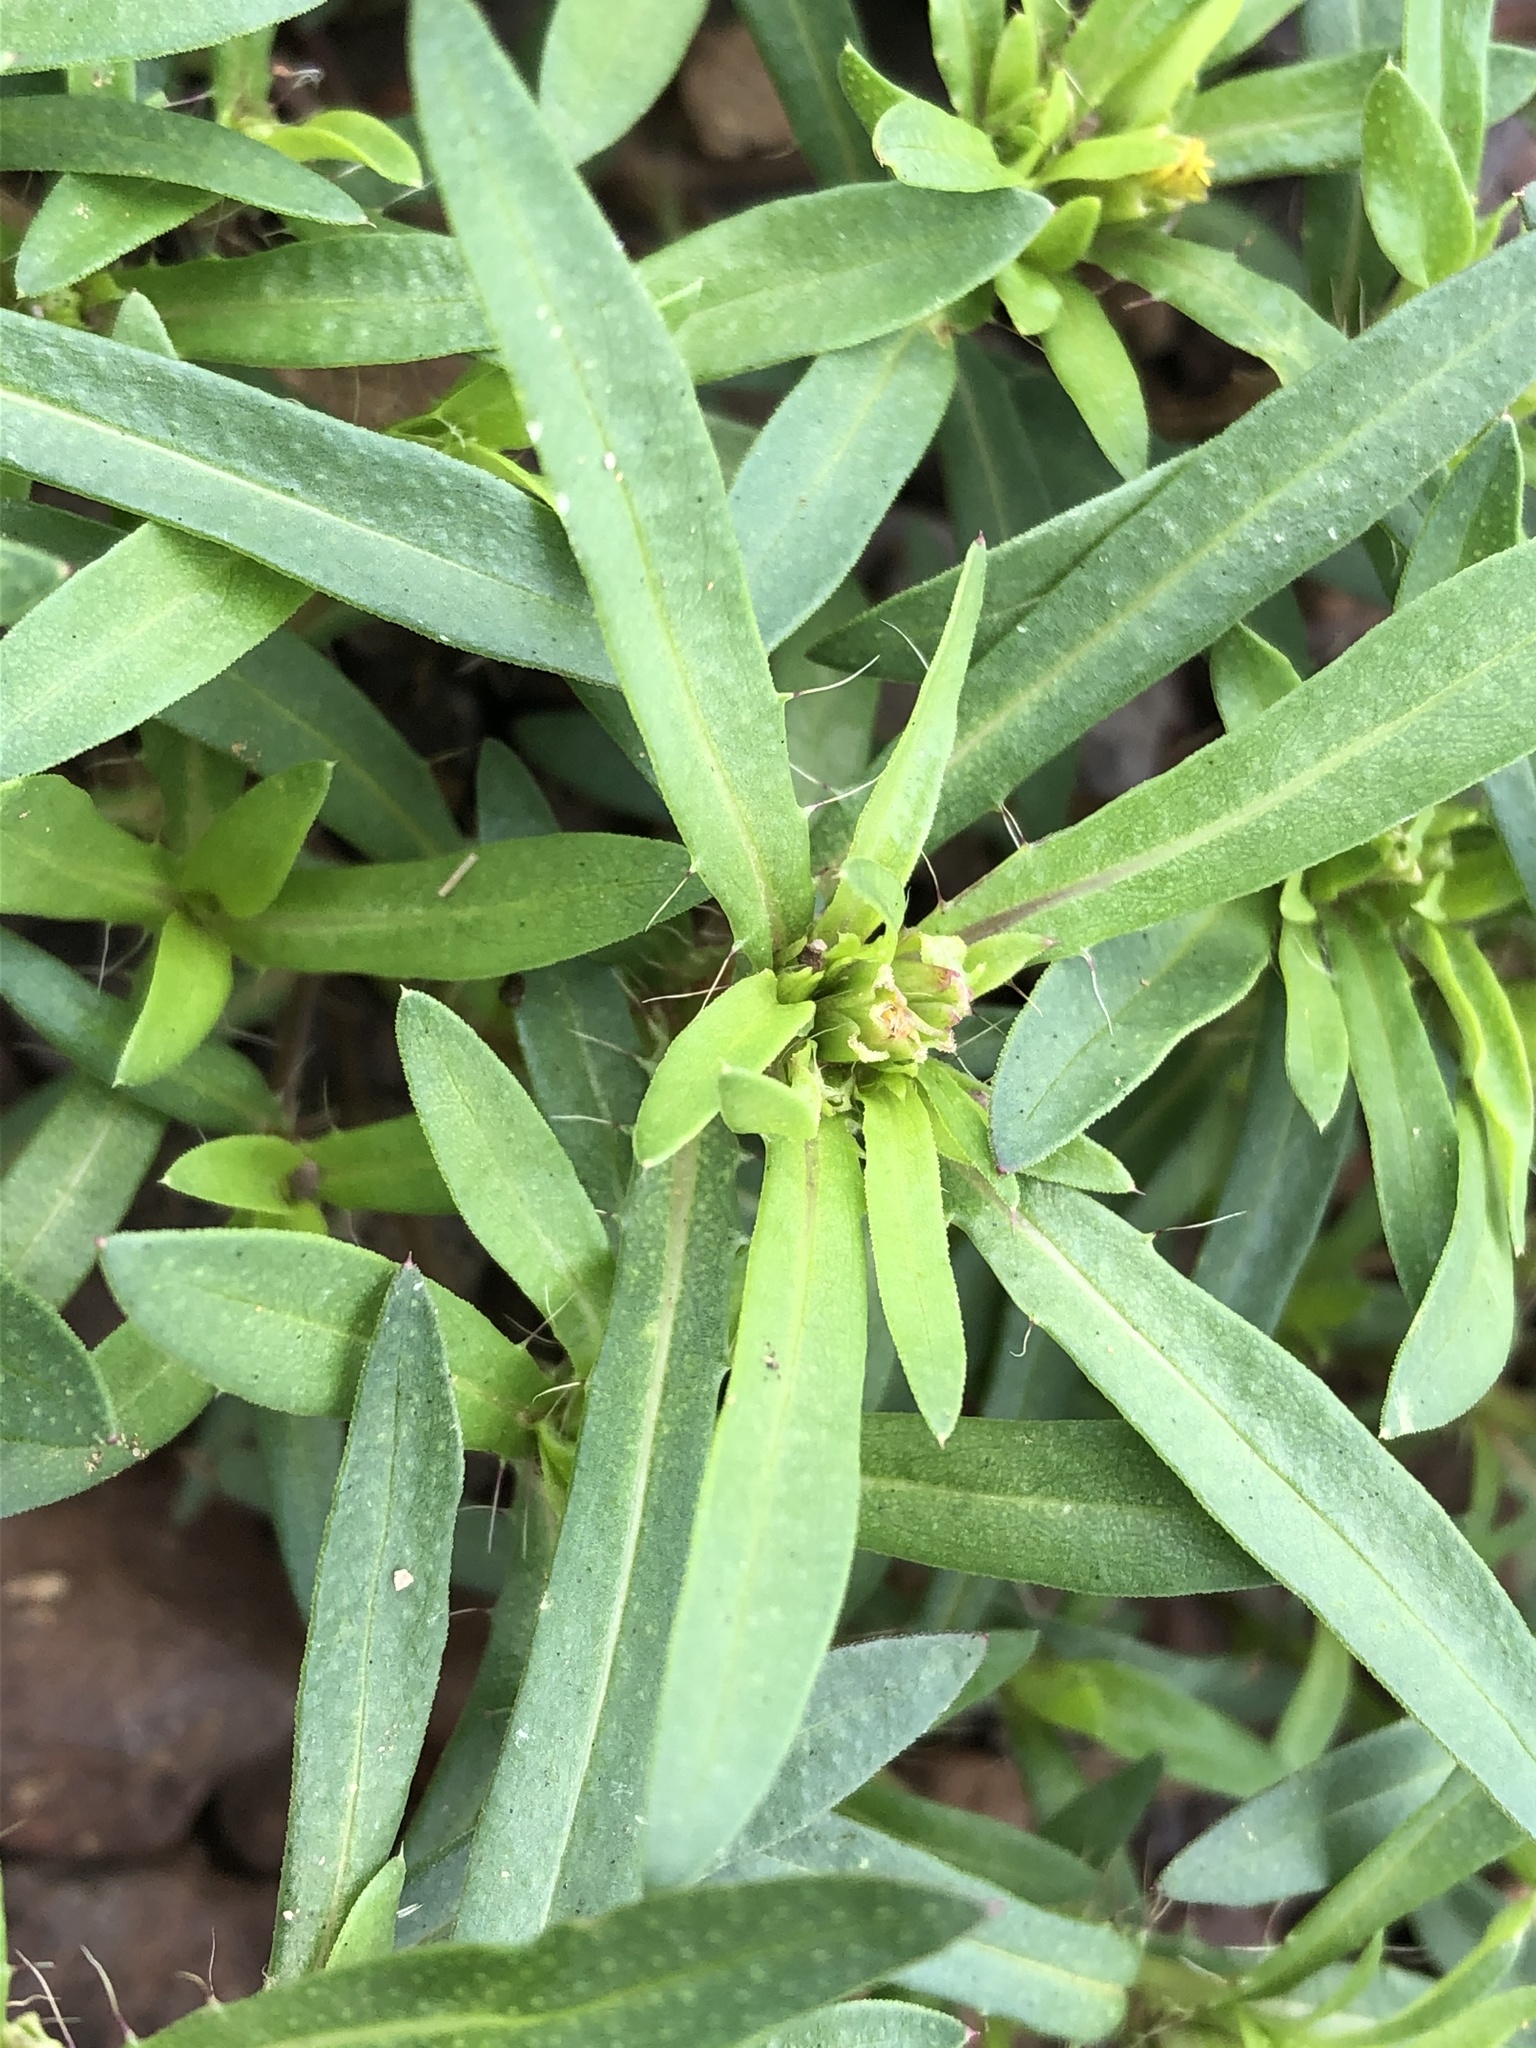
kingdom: Plantae
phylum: Tracheophyta
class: Magnoliopsida
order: Asterales
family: Asteraceae
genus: Pectis
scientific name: Pectis prostrata
